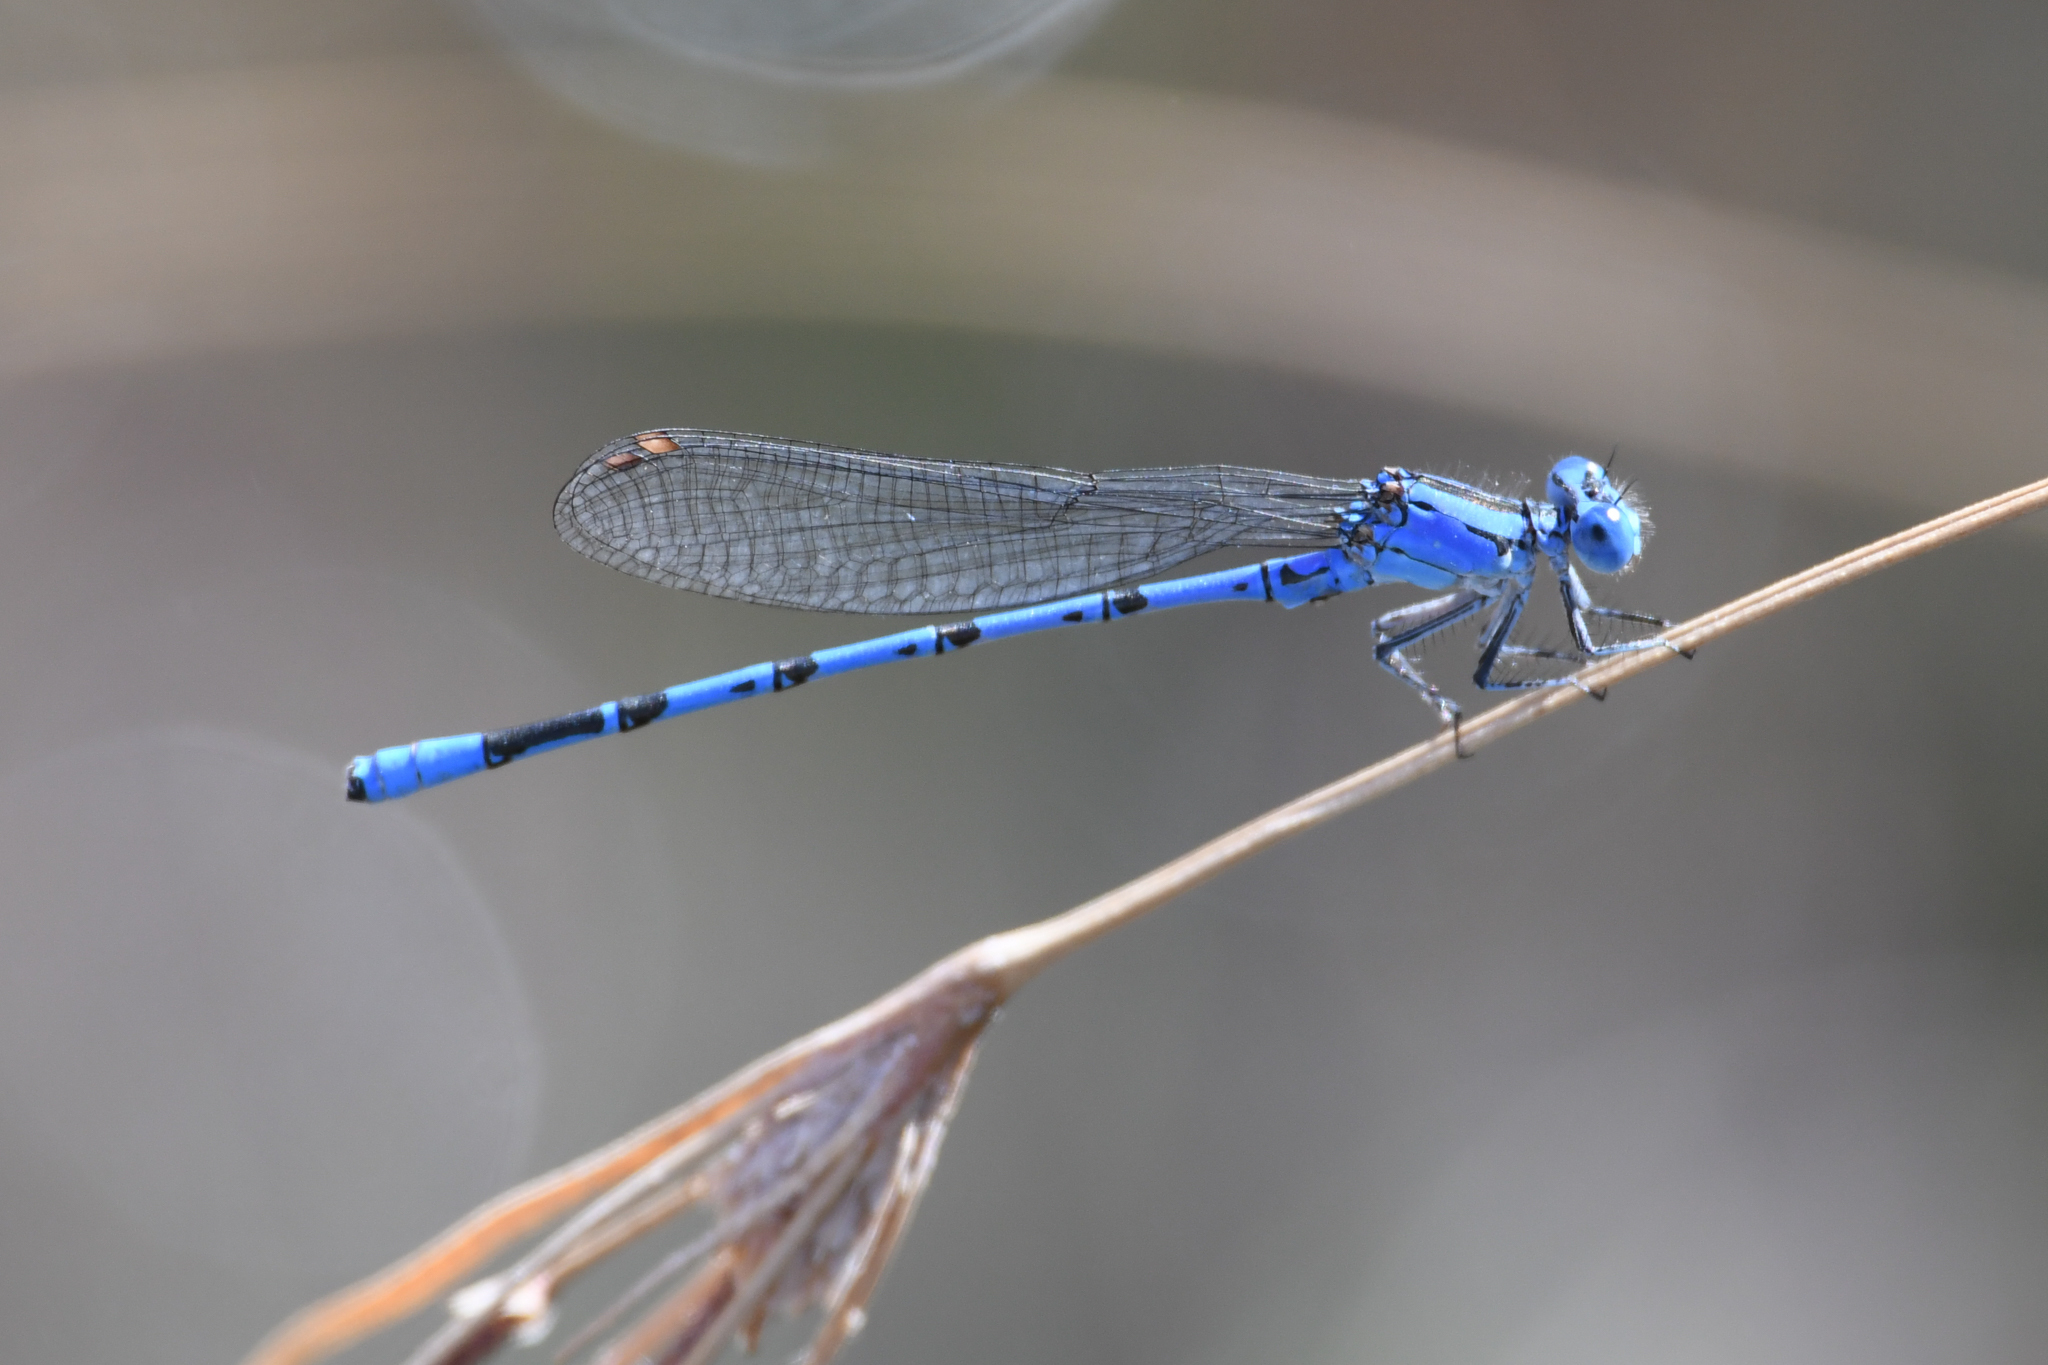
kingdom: Animalia
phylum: Arthropoda
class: Insecta
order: Odonata
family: Coenagrionidae
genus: Argia
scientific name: Argia vivida
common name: Vivid dancer
